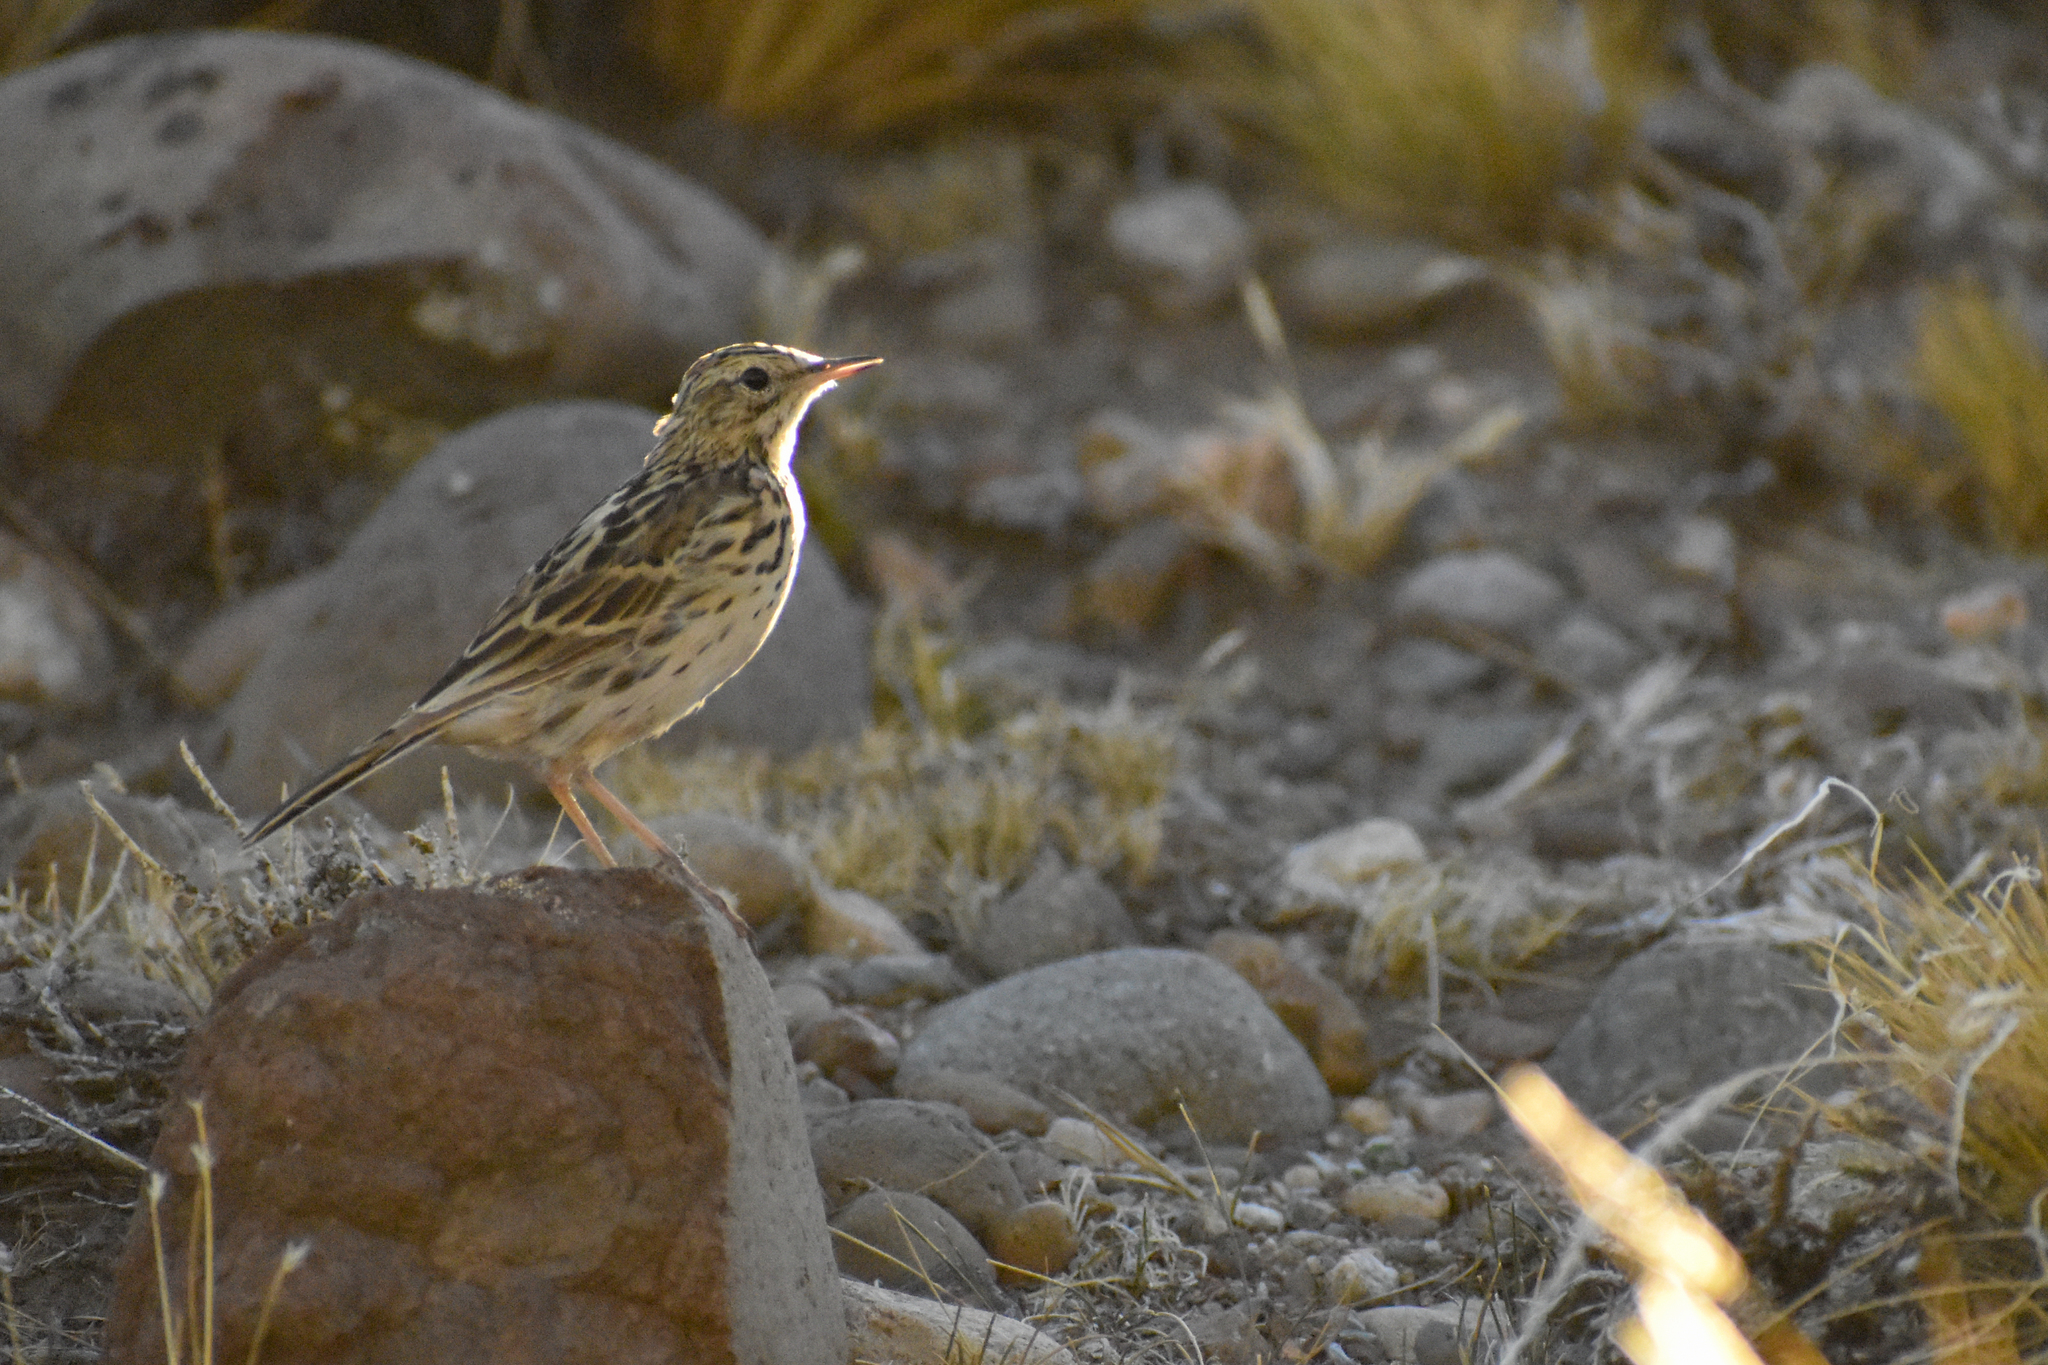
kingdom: Animalia
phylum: Chordata
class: Aves
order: Passeriformes
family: Motacillidae
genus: Anthus
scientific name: Anthus correndera
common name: Correndera pipit
